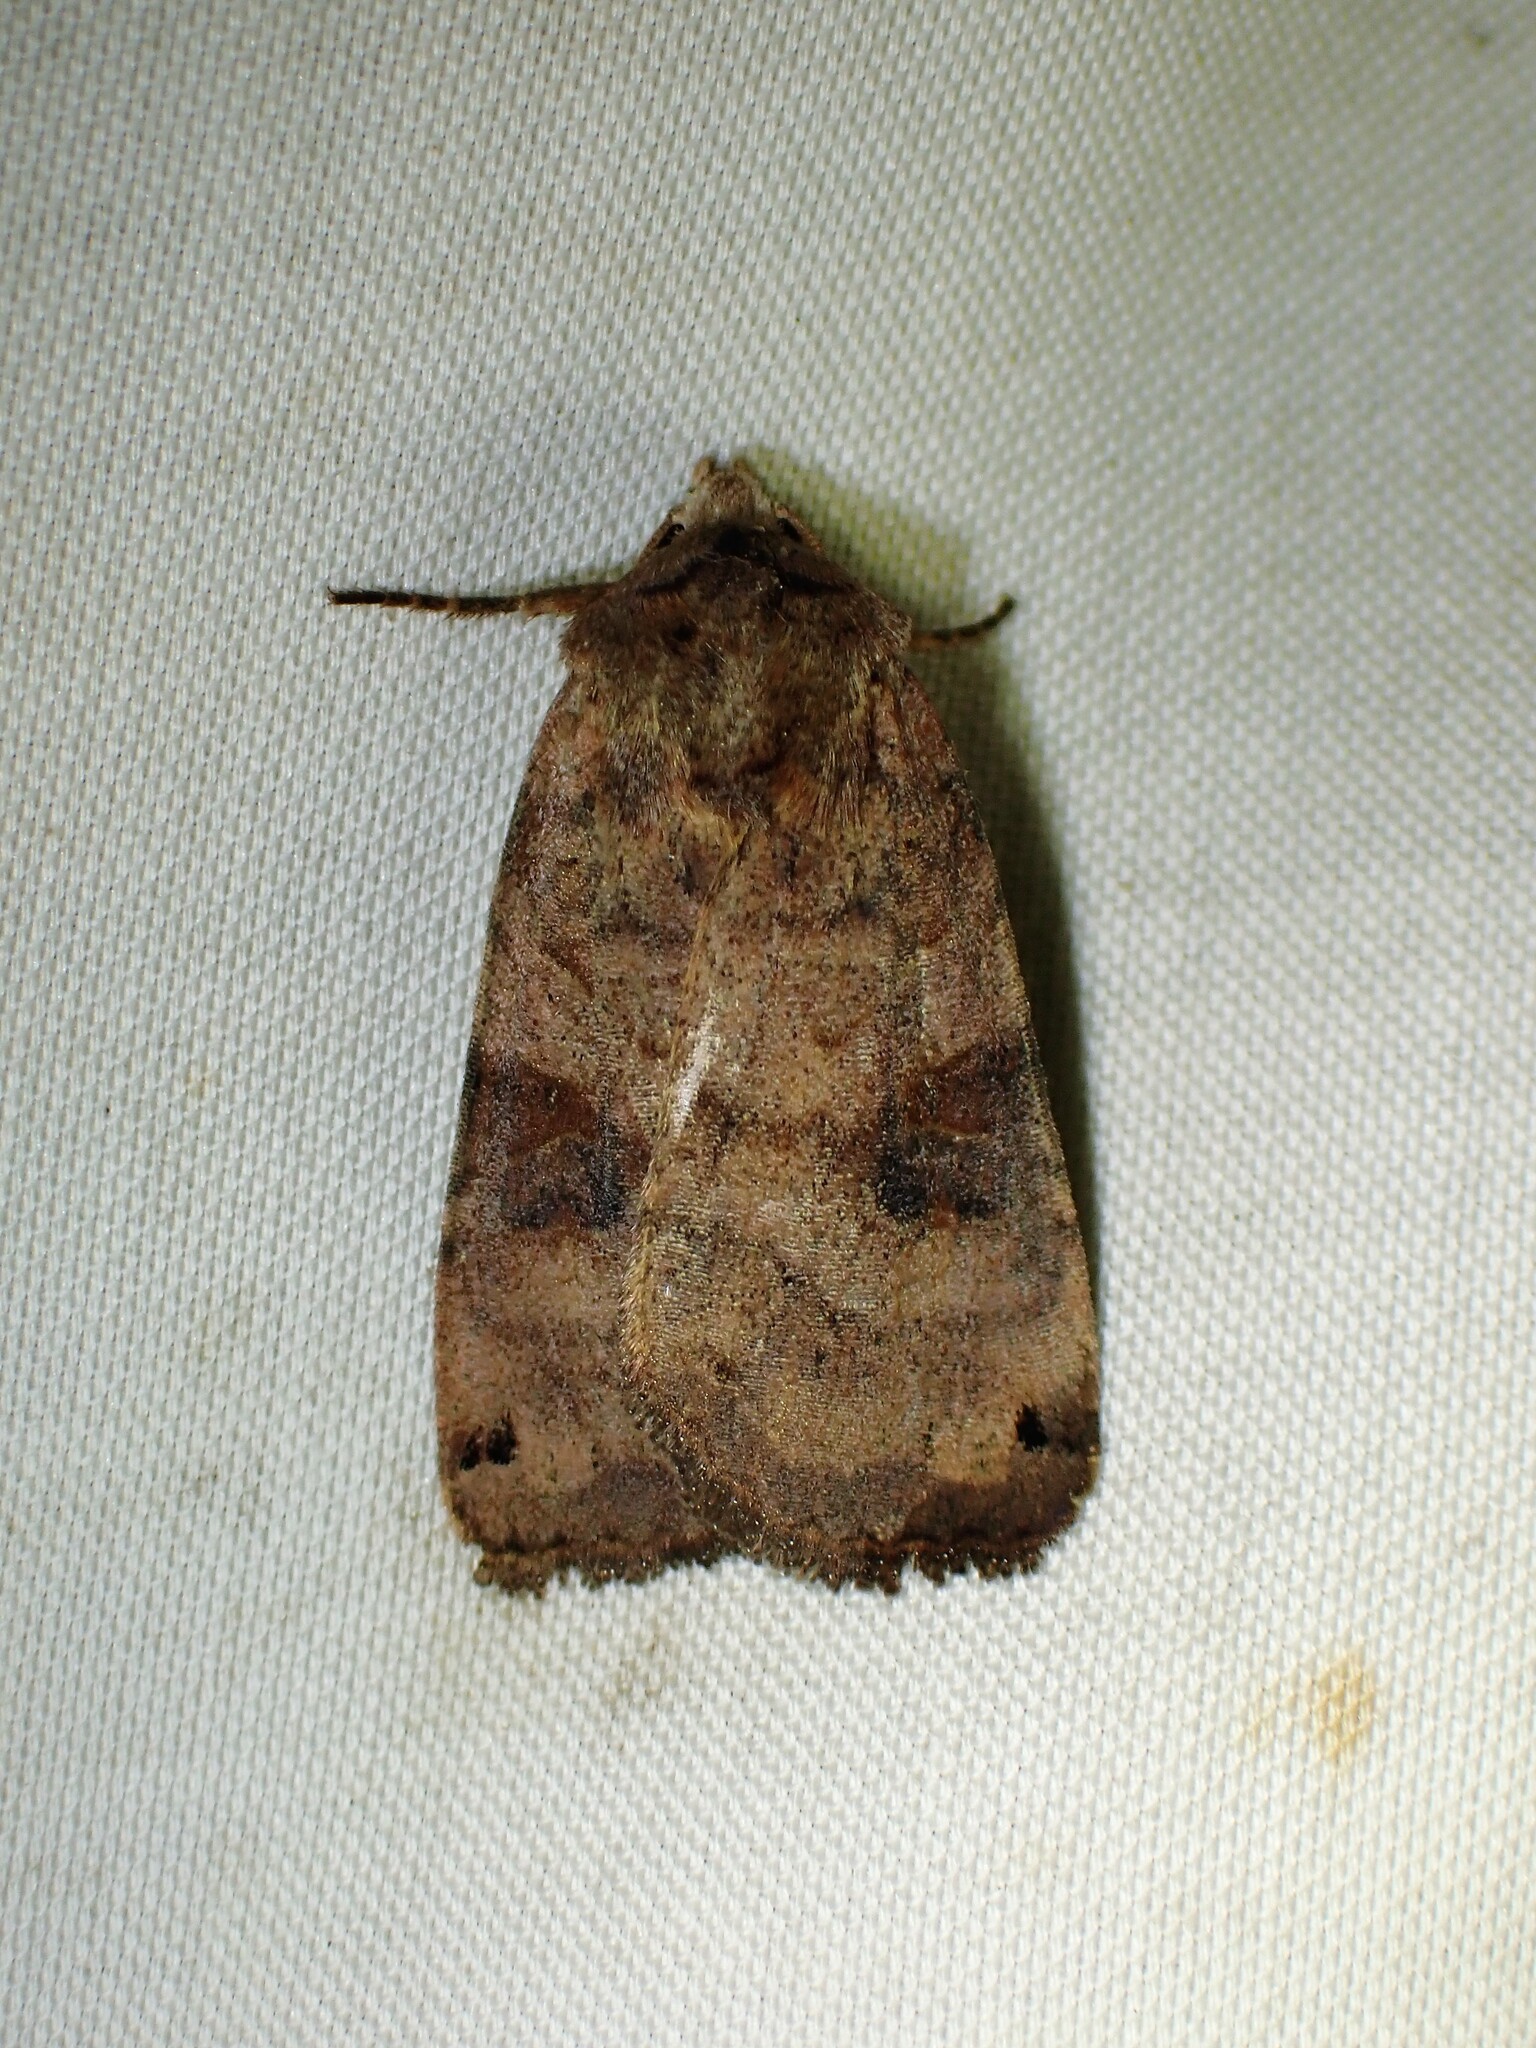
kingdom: Animalia
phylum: Arthropoda
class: Insecta
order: Lepidoptera
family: Noctuidae
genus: Xestia
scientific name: Xestia smithii
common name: Smith's dart
